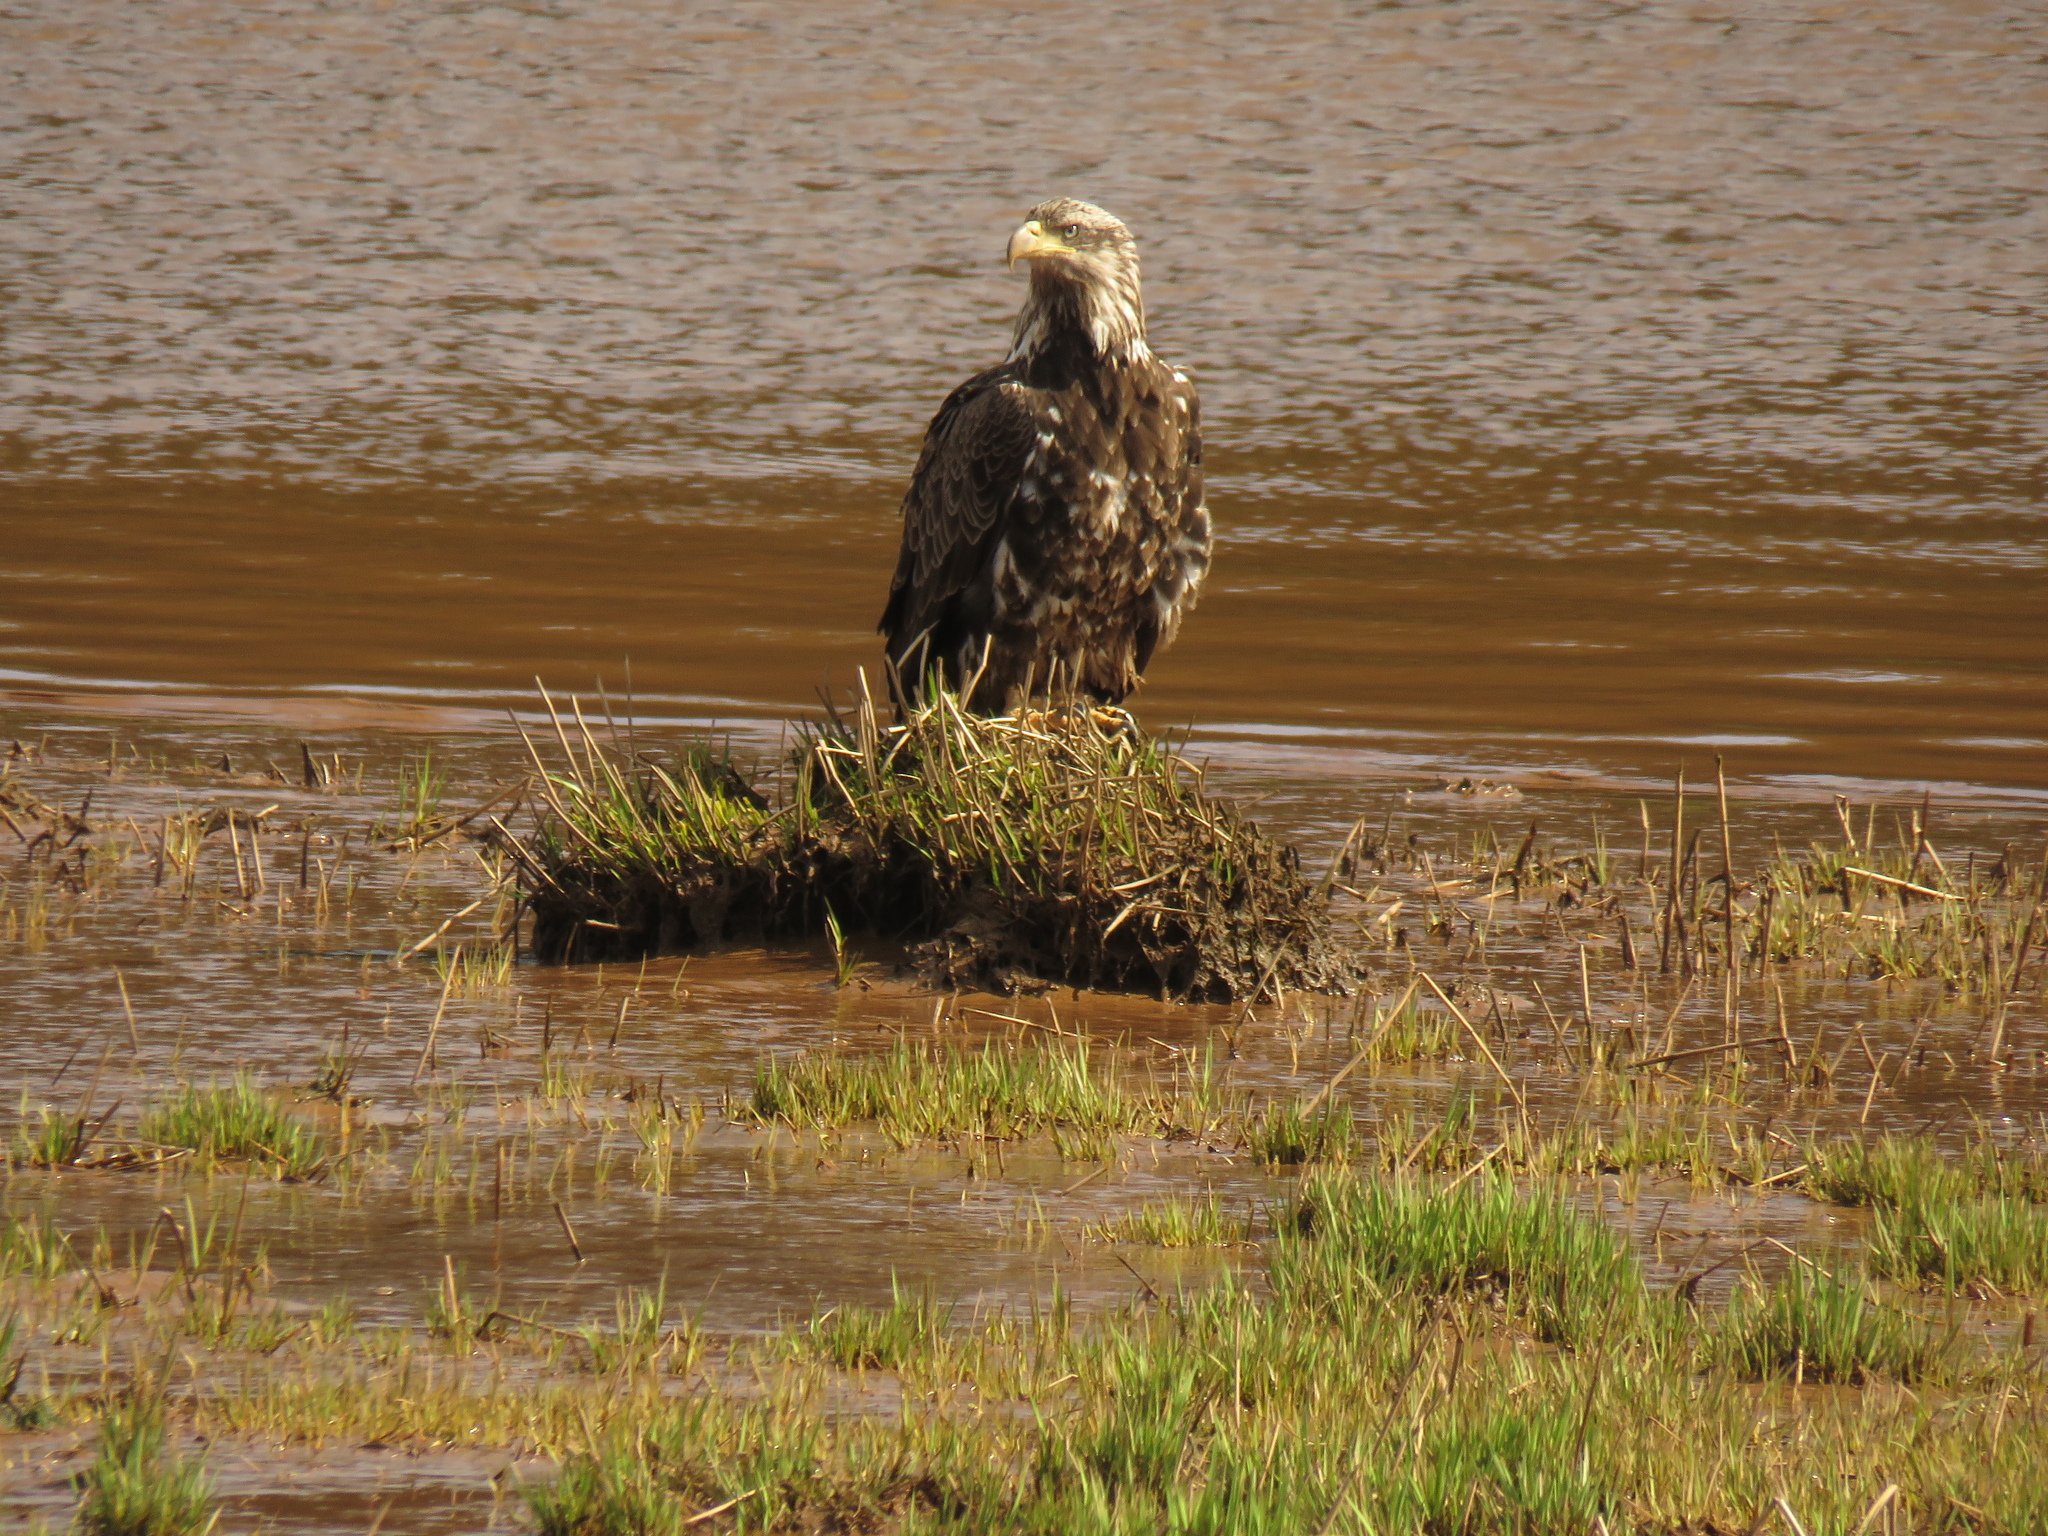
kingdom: Animalia
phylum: Chordata
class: Aves
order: Accipitriformes
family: Accipitridae
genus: Haliaeetus
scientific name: Haliaeetus leucocephalus
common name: Bald eagle
